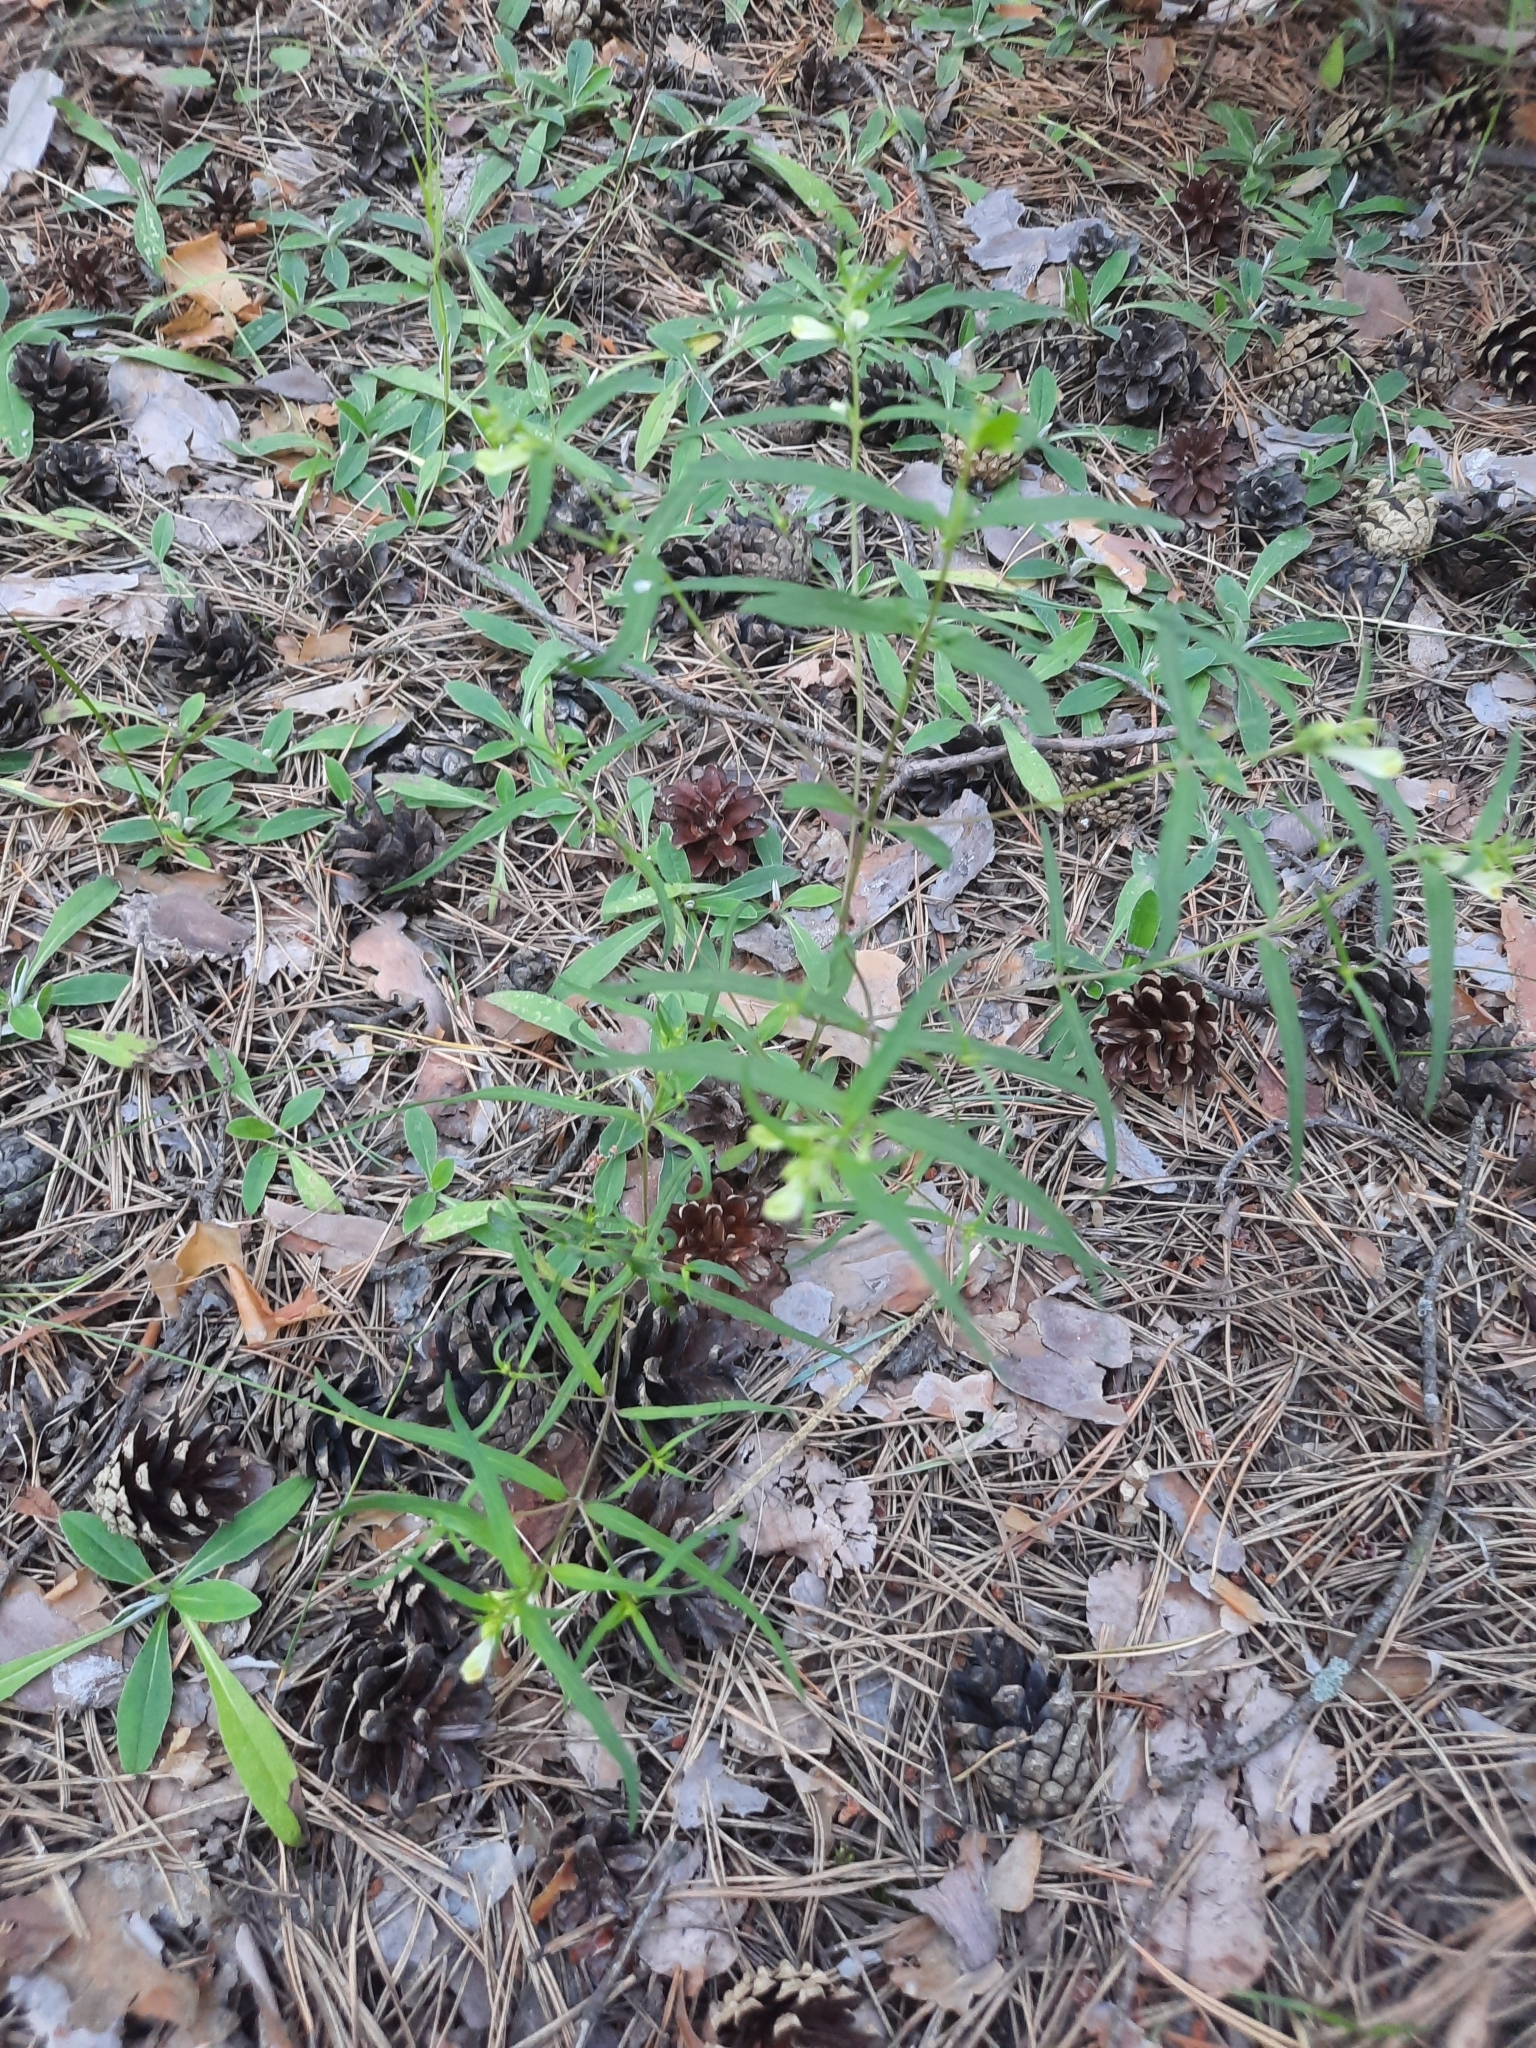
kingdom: Plantae
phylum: Tracheophyta
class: Magnoliopsida
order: Lamiales
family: Orobanchaceae
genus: Melampyrum
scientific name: Melampyrum pratense
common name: Common cow-wheat
